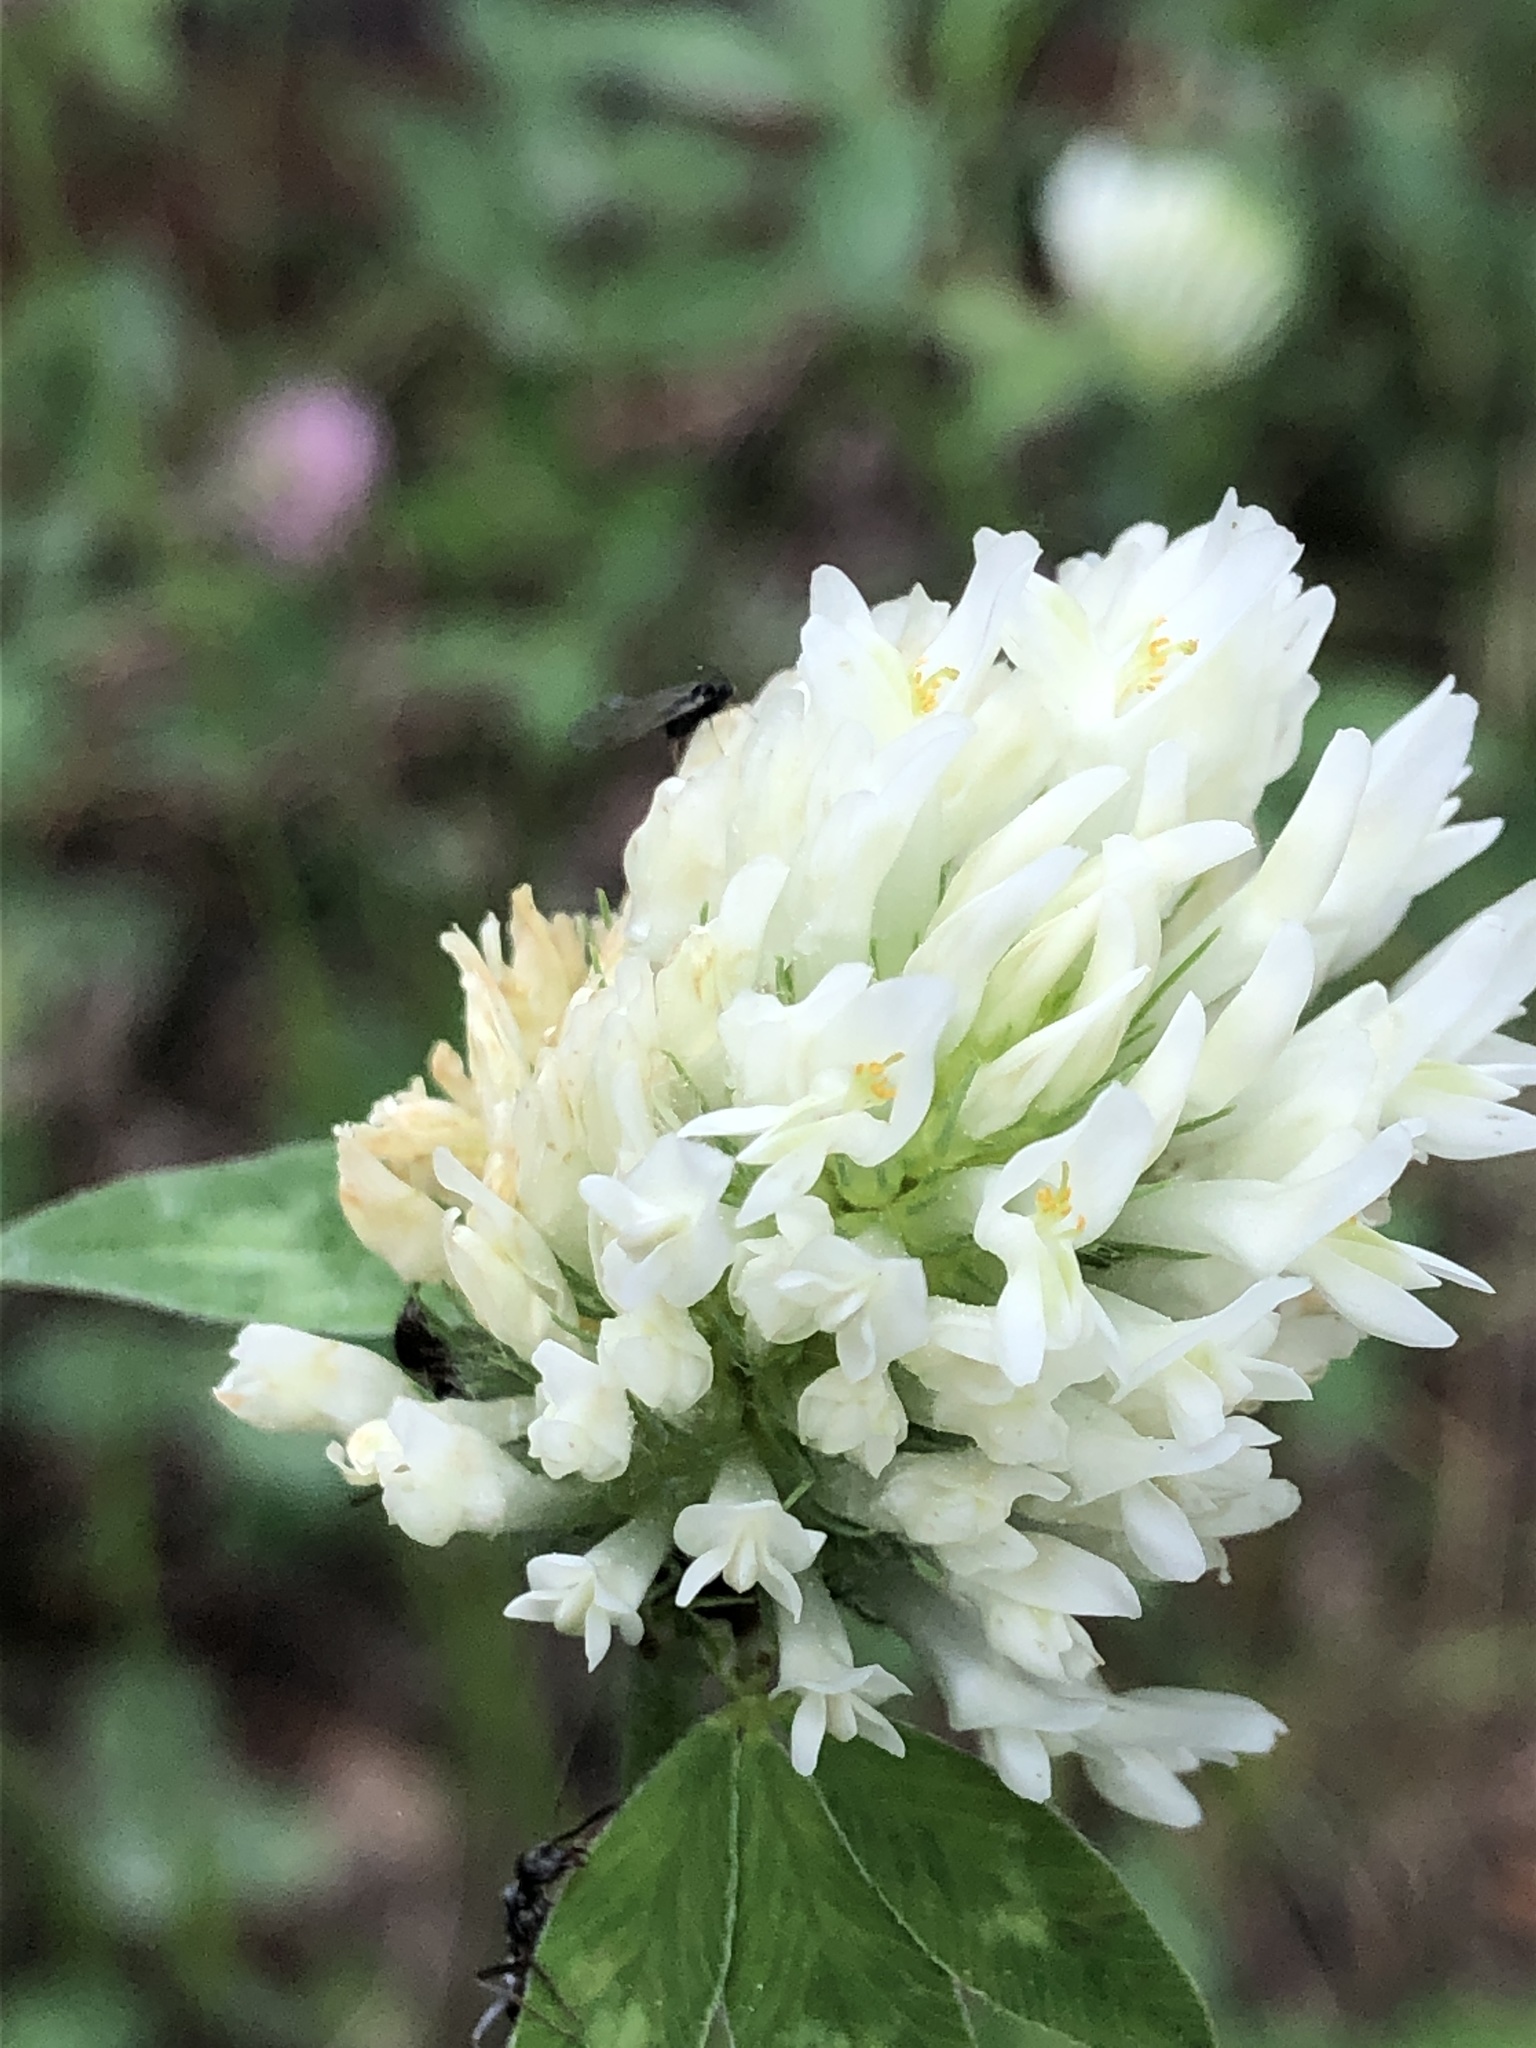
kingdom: Plantae
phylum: Tracheophyta
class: Magnoliopsida
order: Fabales
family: Fabaceae
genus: Trifolium
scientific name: Trifolium repens
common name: White clover
